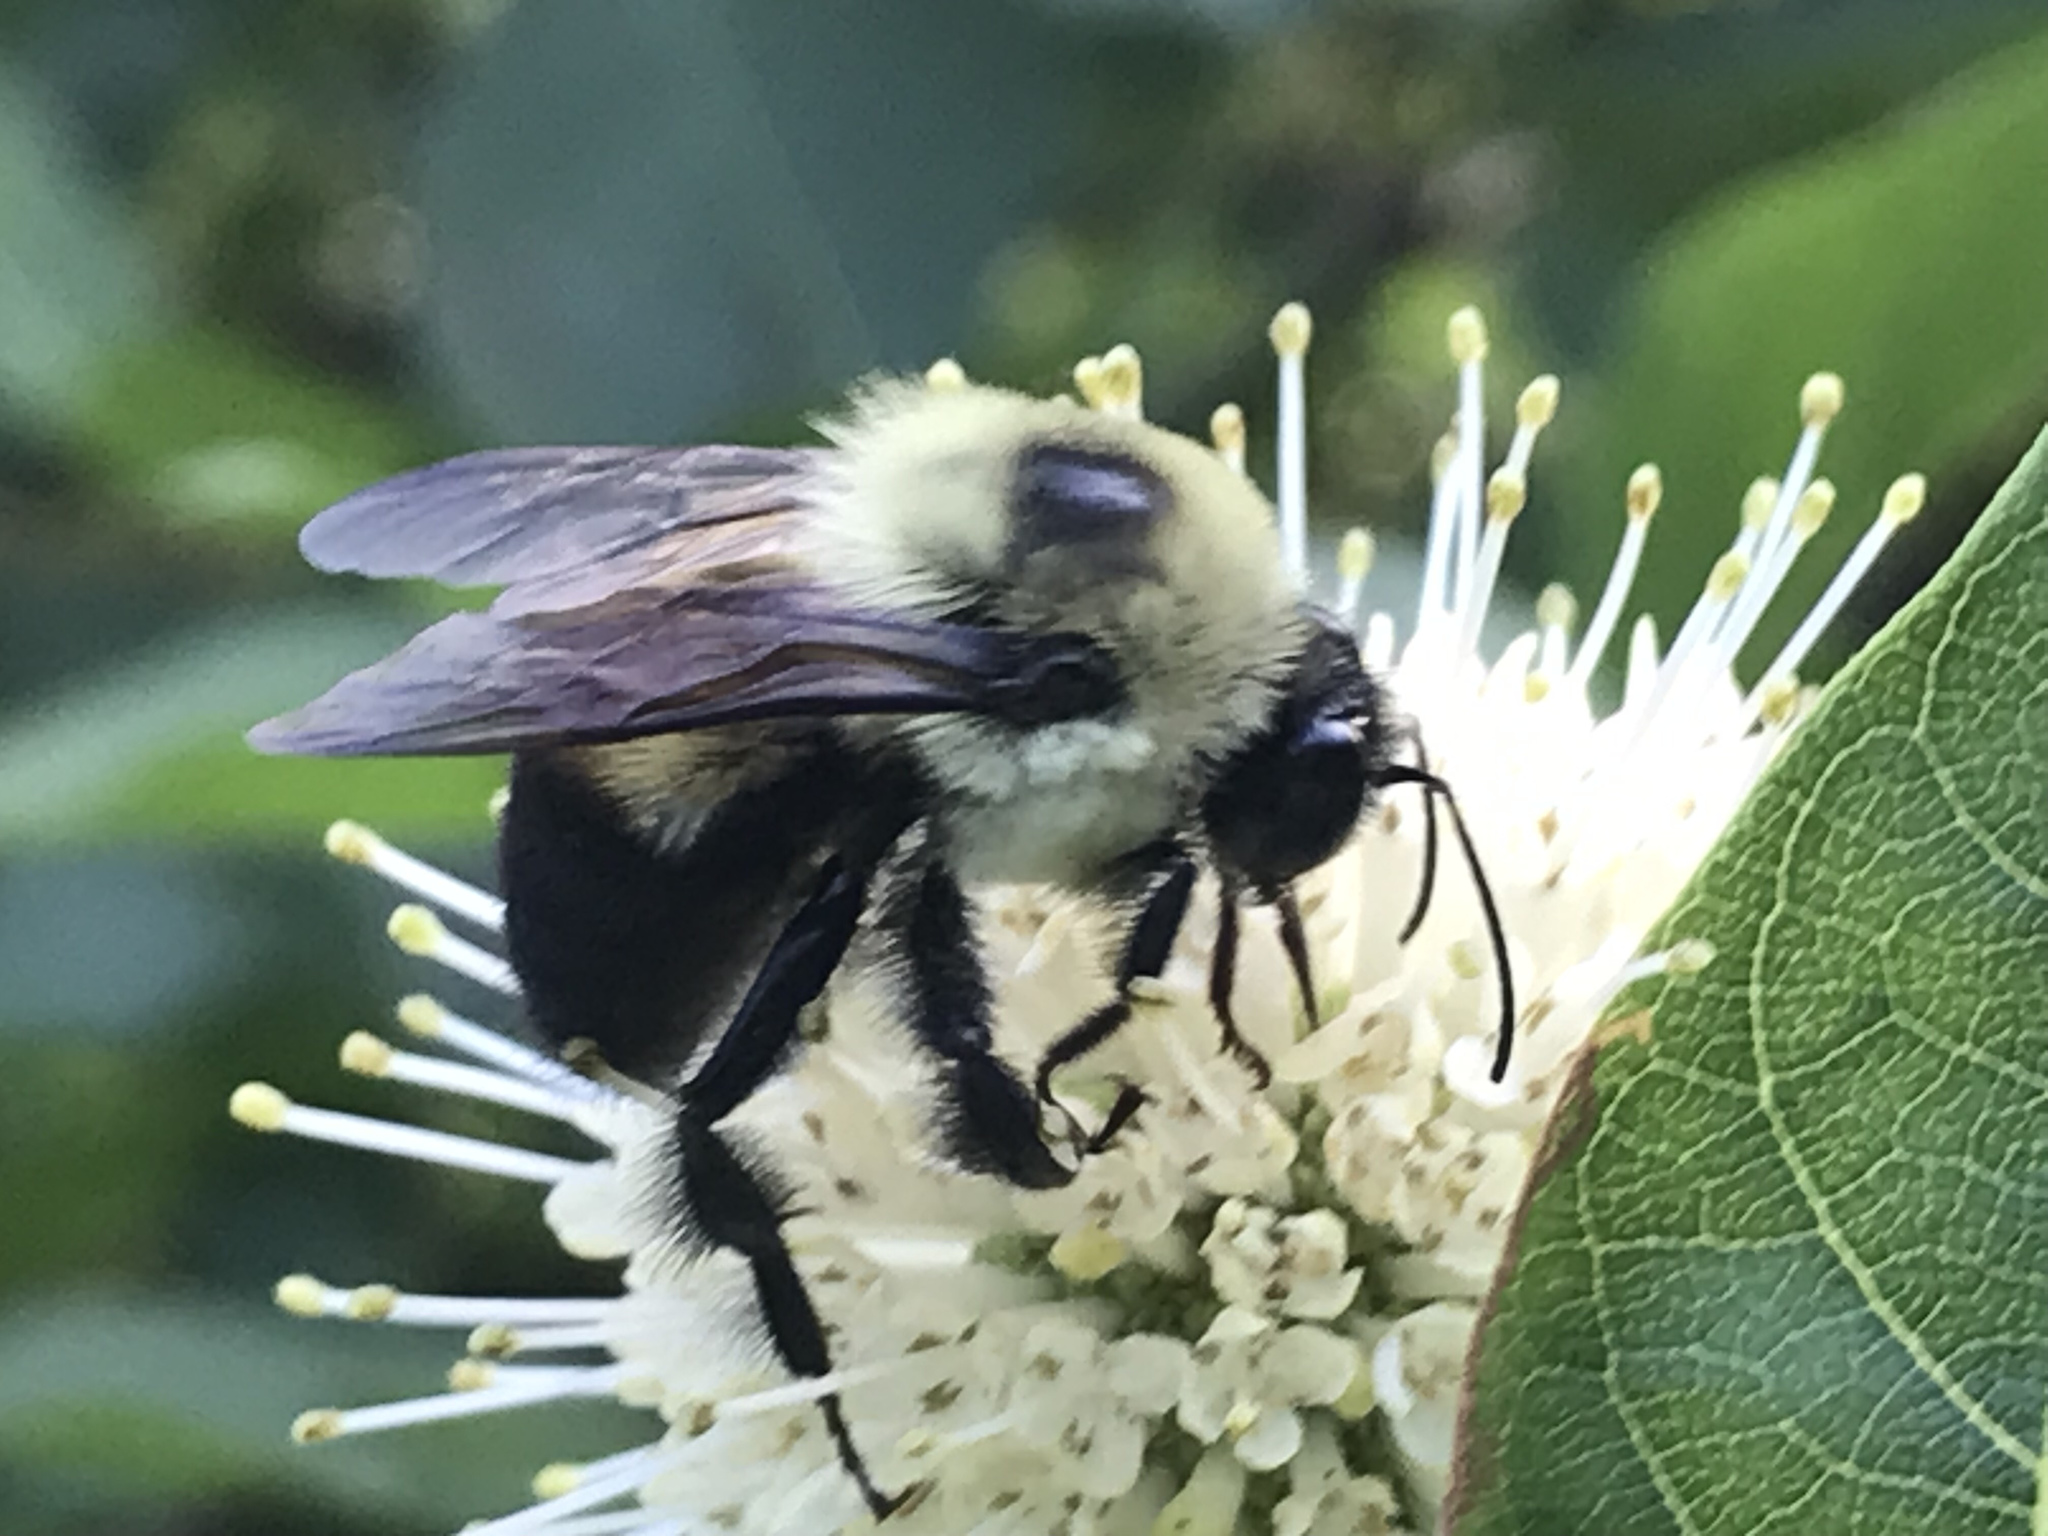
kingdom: Animalia
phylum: Arthropoda
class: Insecta
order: Hymenoptera
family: Apidae
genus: Bombus
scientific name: Bombus griseocollis
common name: Brown-belted bumble bee
